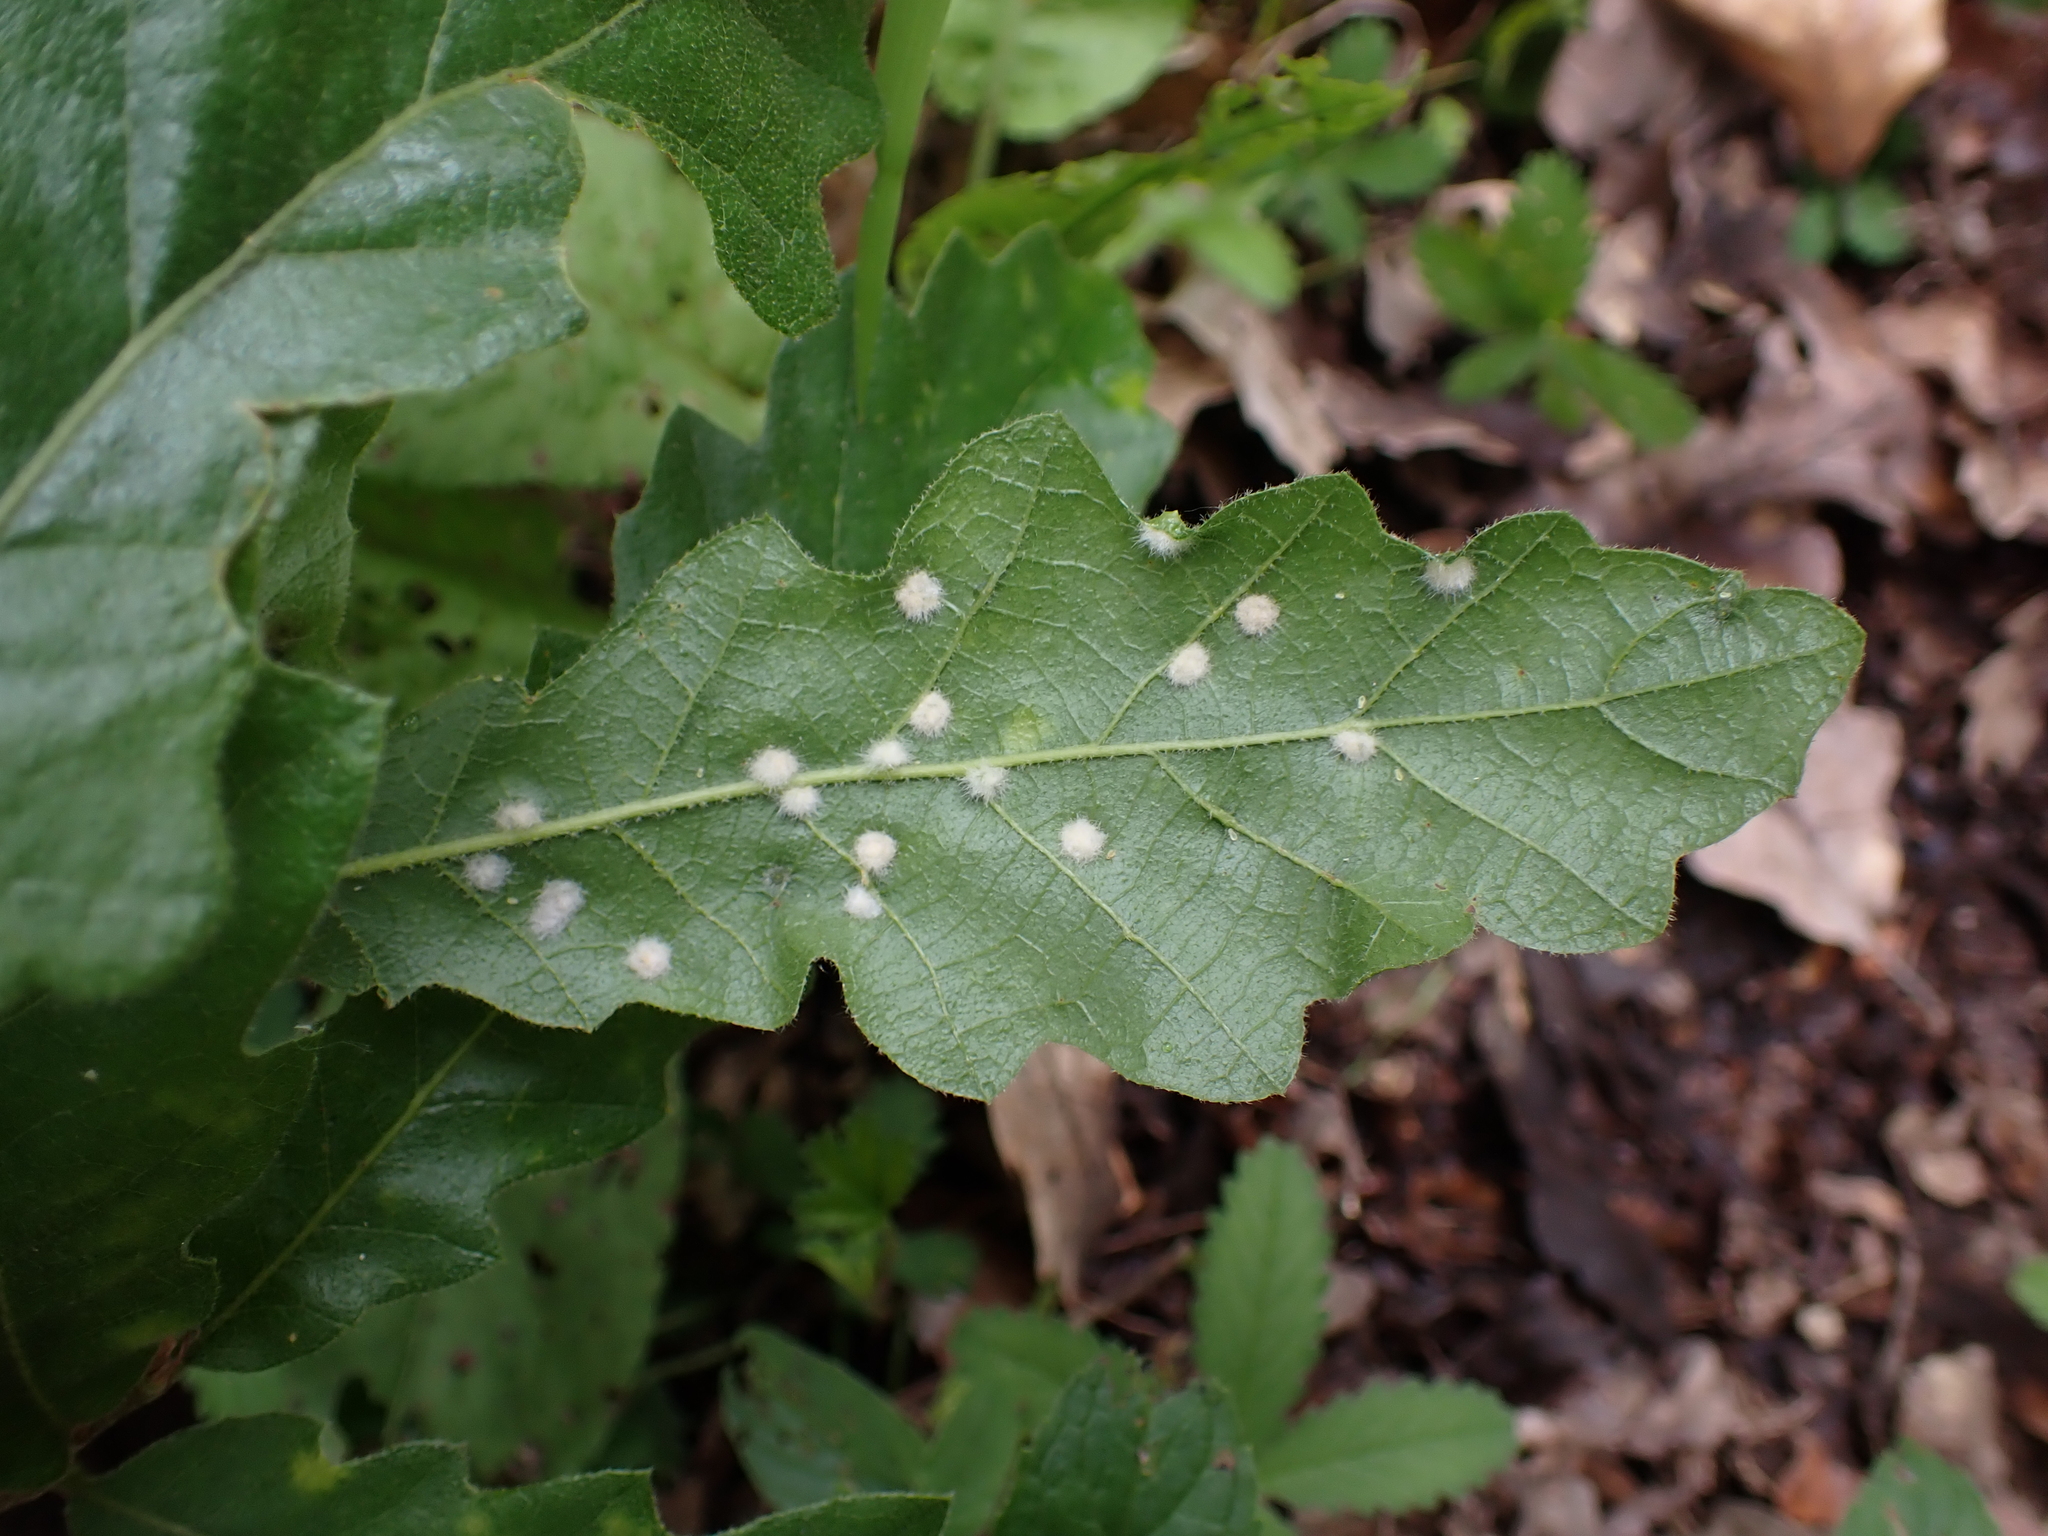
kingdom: Animalia
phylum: Arthropoda
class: Insecta
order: Diptera
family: Cecidomyiidae
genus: Janetia
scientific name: Janetia cerris
